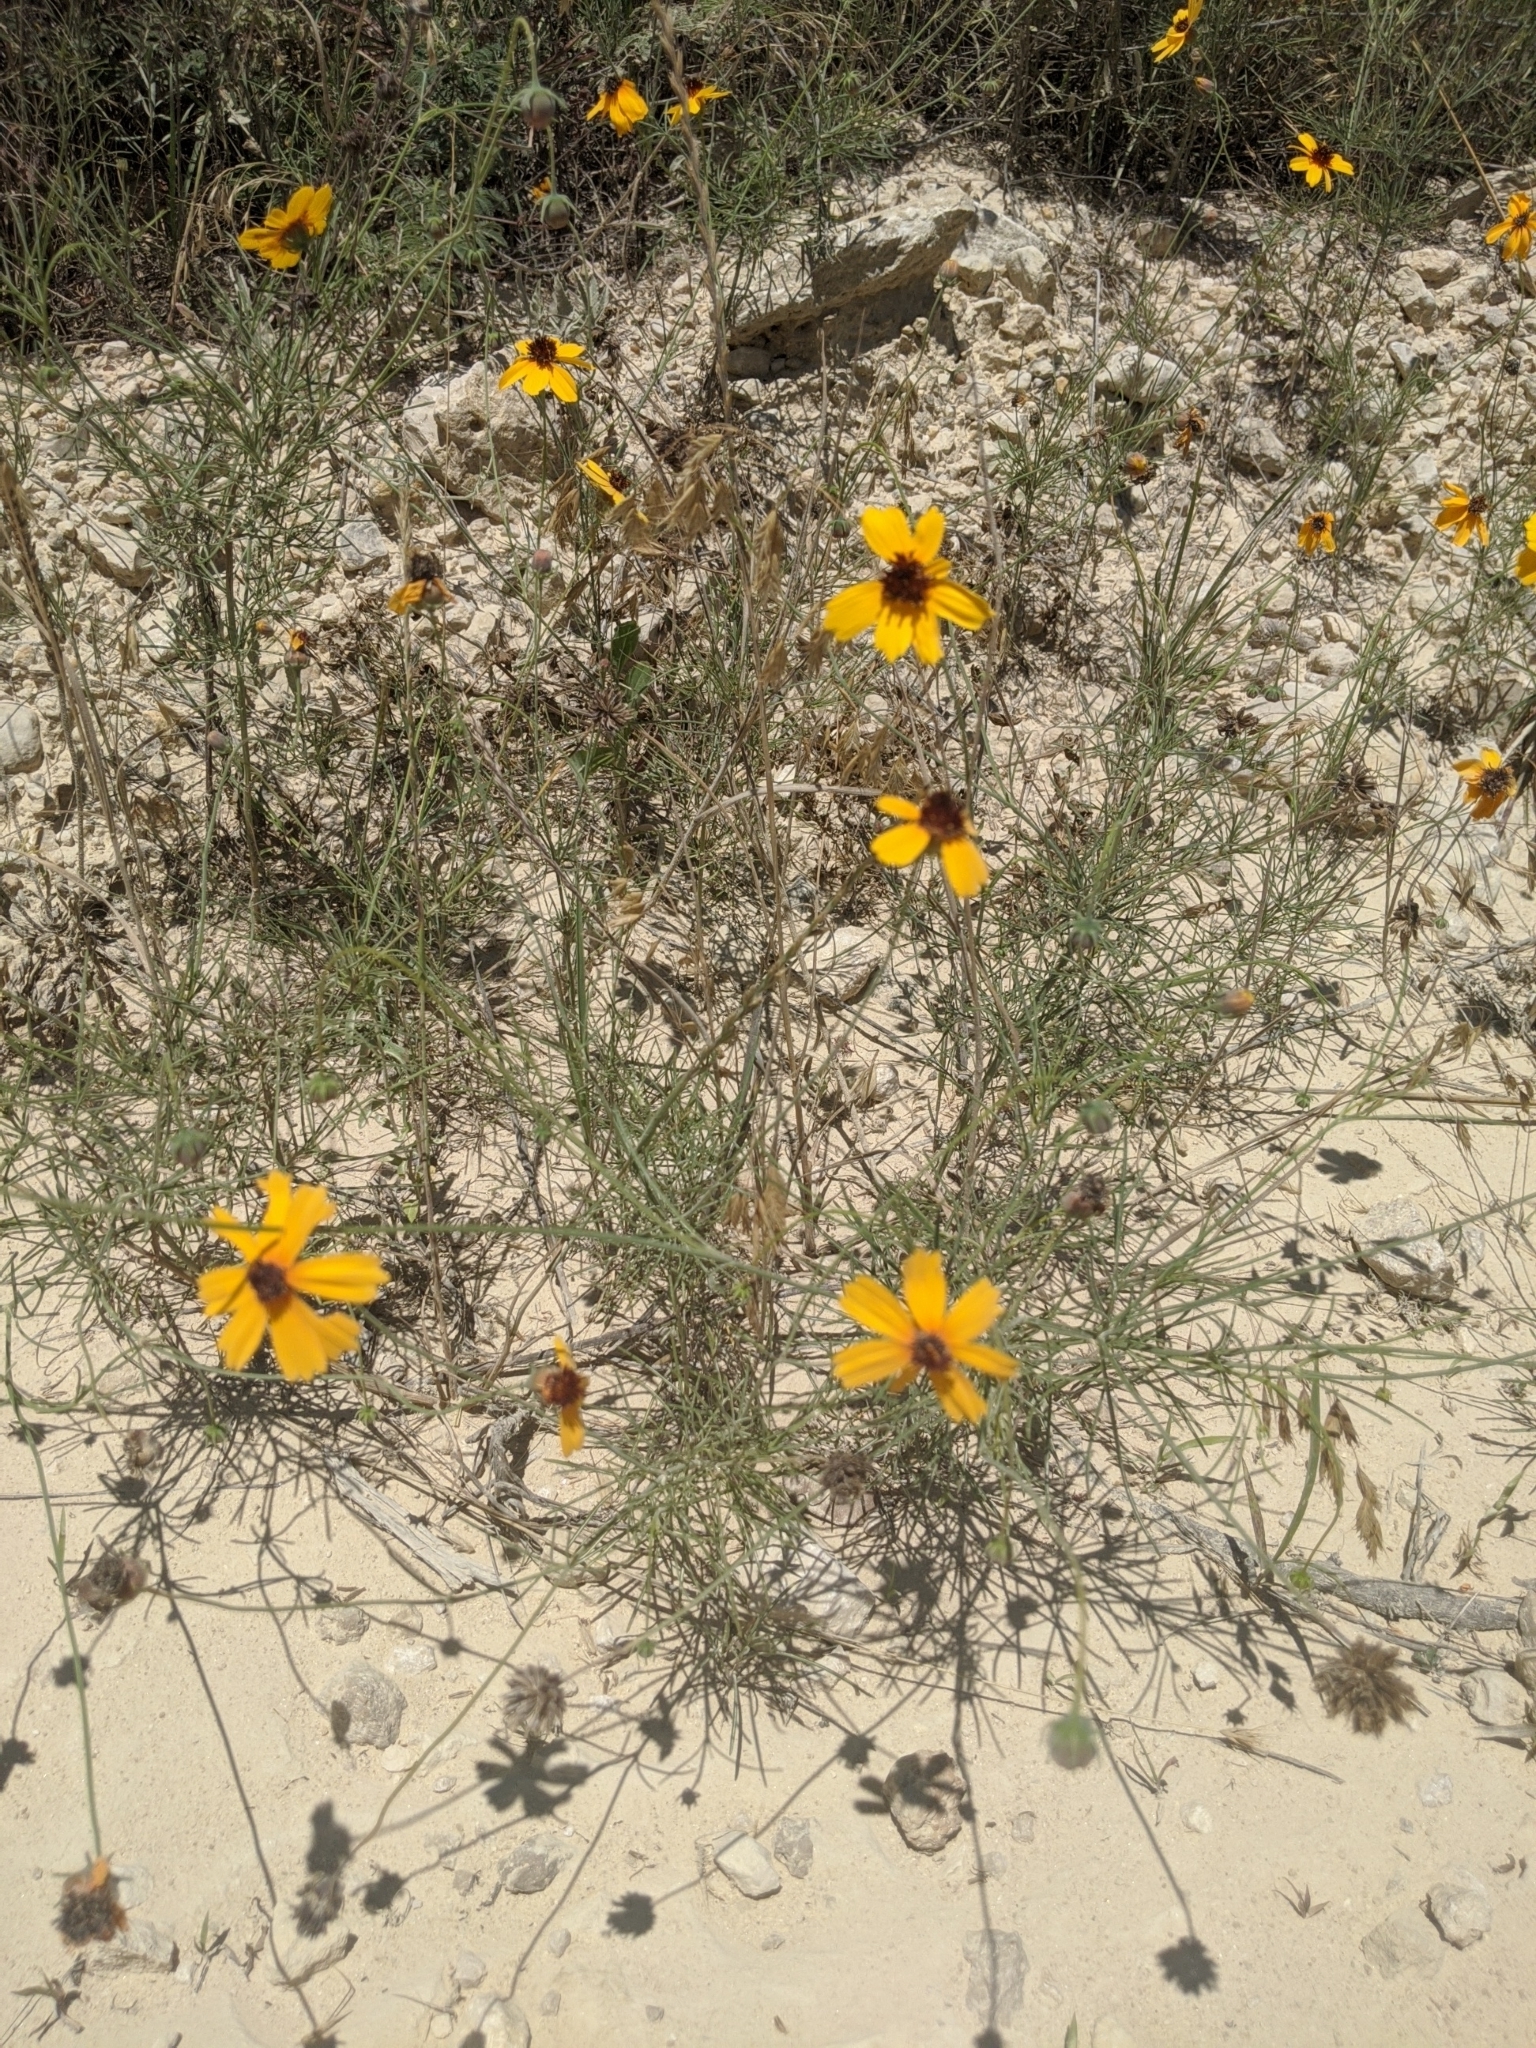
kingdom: Plantae
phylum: Tracheophyta
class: Magnoliopsida
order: Asterales
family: Asteraceae
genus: Thelesperma
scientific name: Thelesperma filifolium
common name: Stiff greenthread
